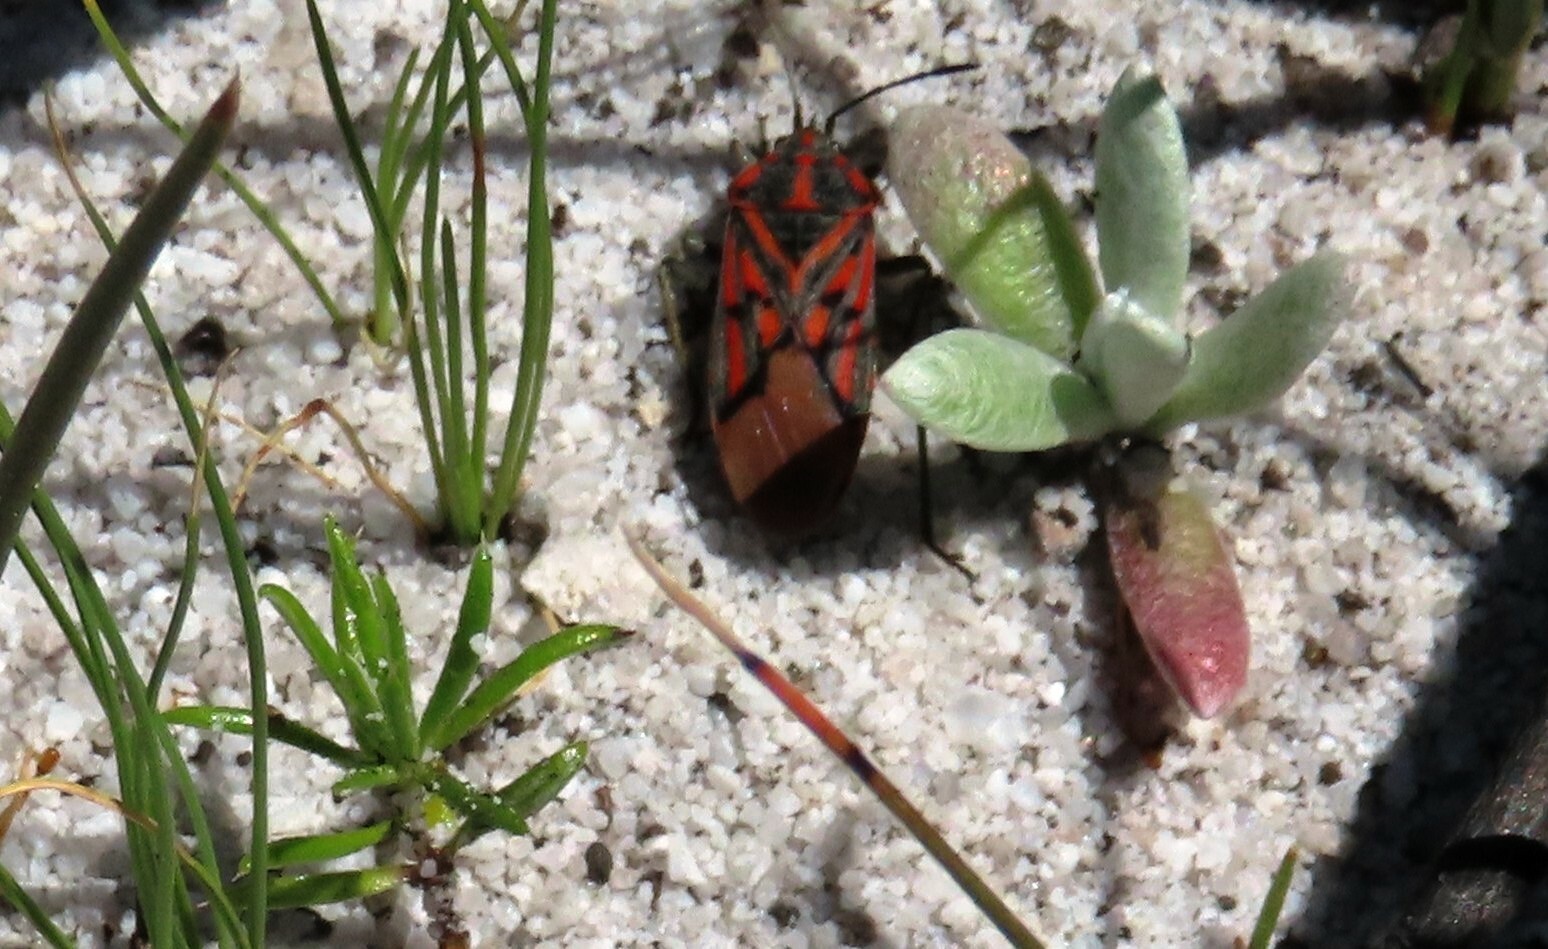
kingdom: Animalia
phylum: Arthropoda
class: Insecta
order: Hemiptera
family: Lygaeidae
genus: Spilostethus
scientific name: Spilostethus crudelis
